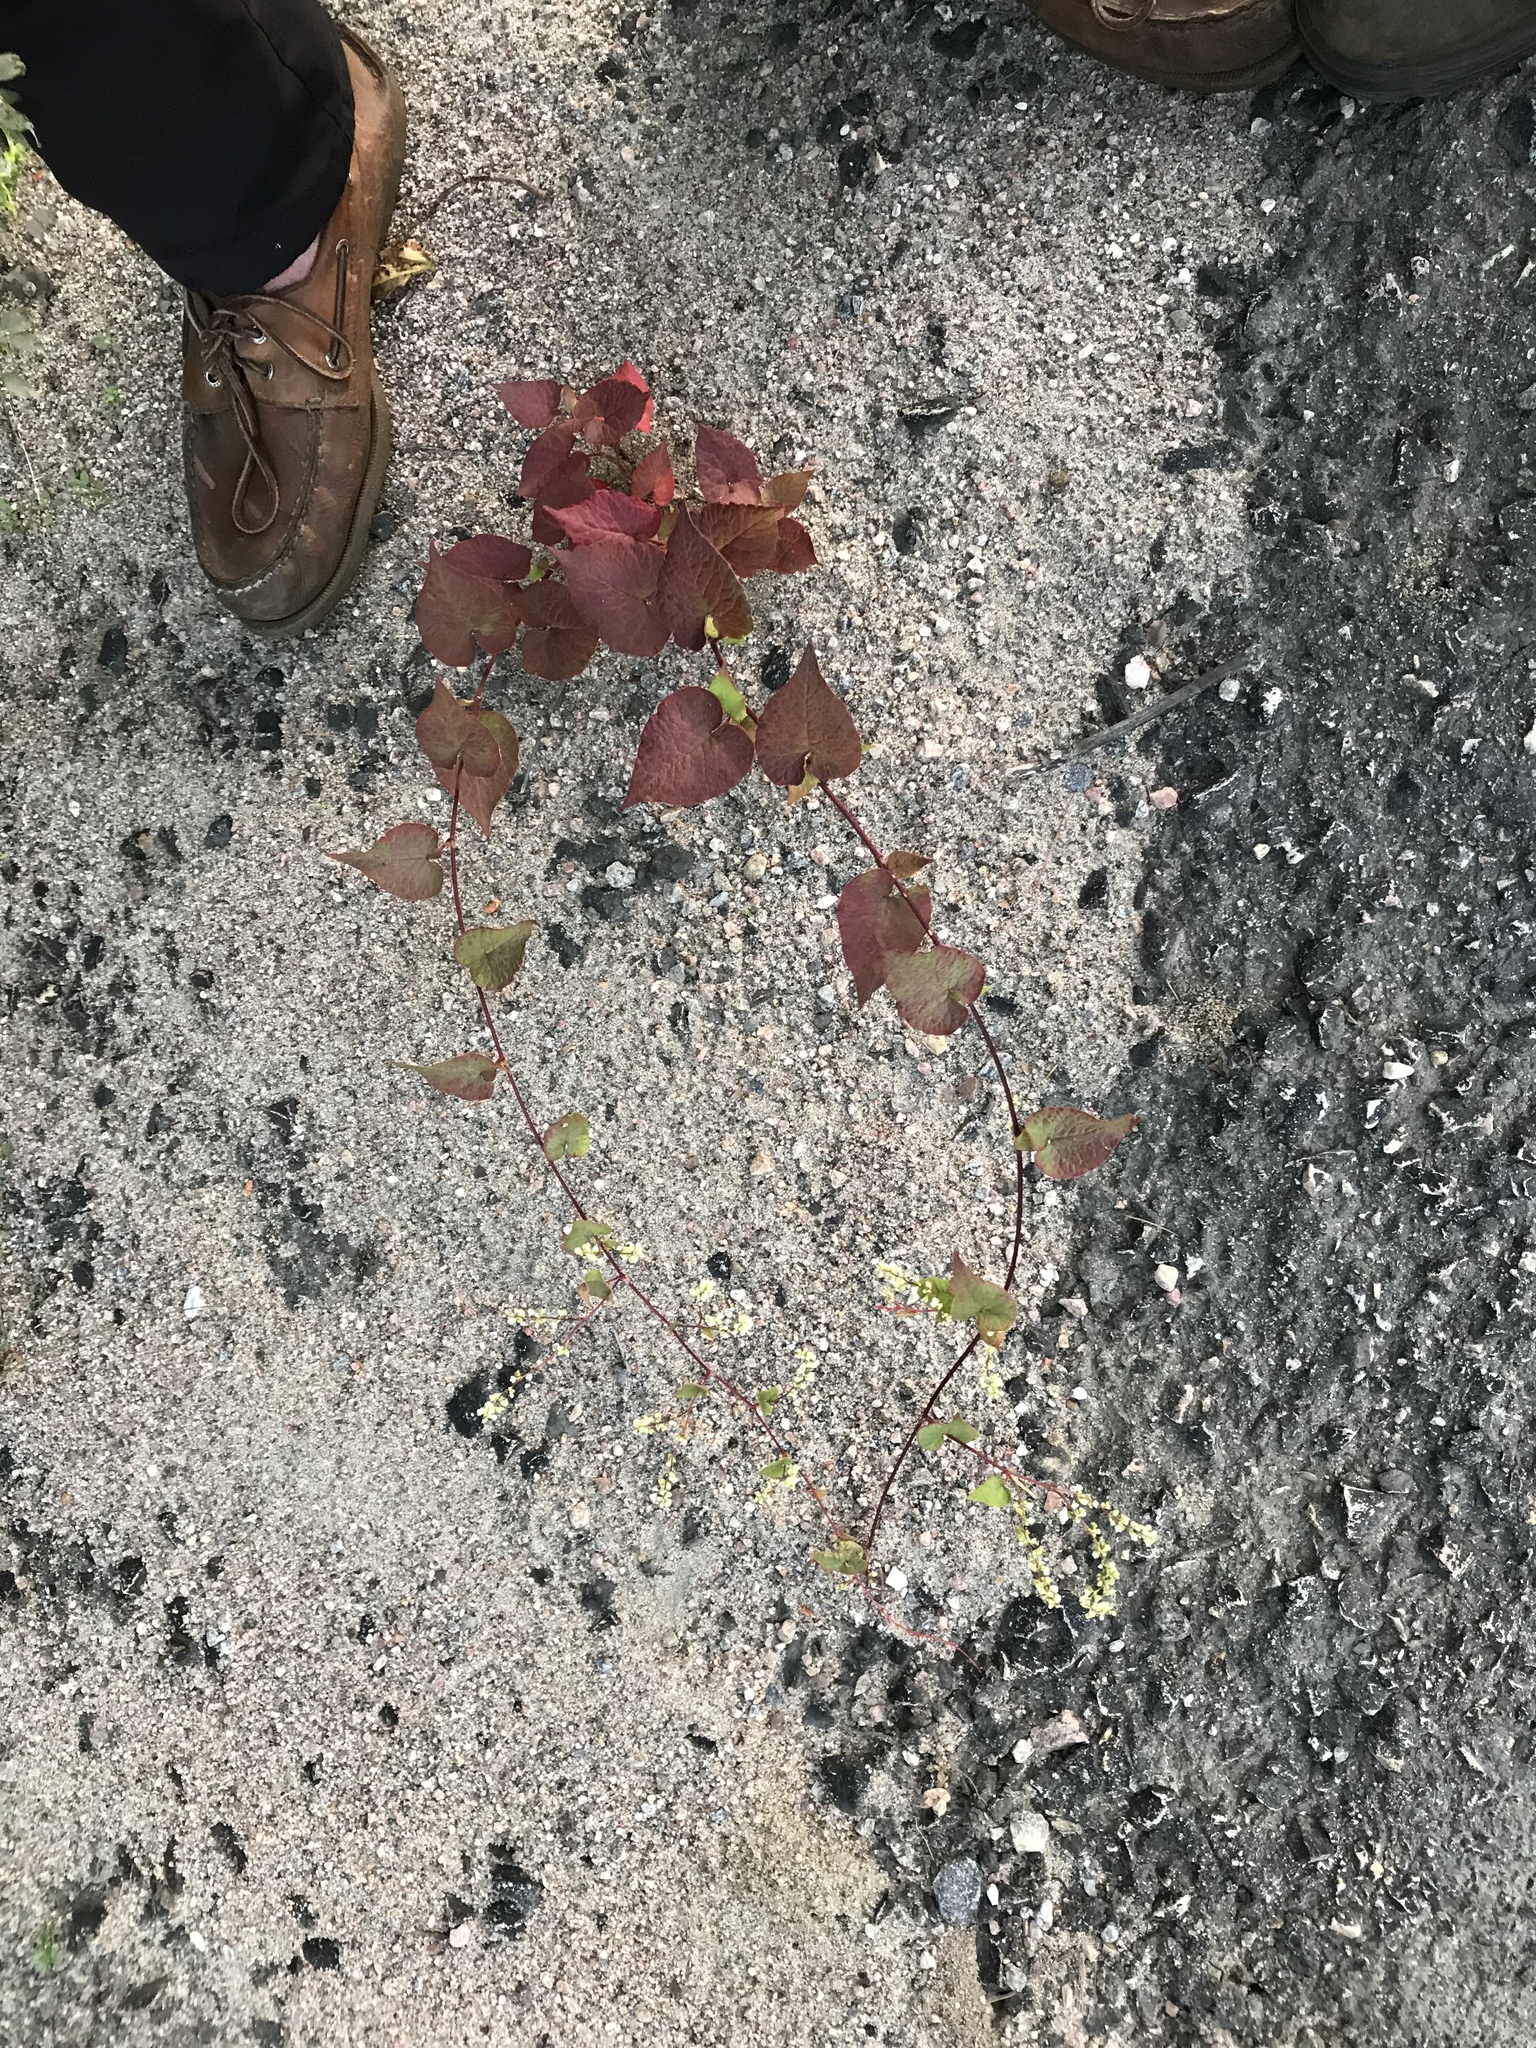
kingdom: Plantae
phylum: Tracheophyta
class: Magnoliopsida
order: Caryophyllales
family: Polygonaceae
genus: Parogonum
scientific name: Parogonum ciliinode
